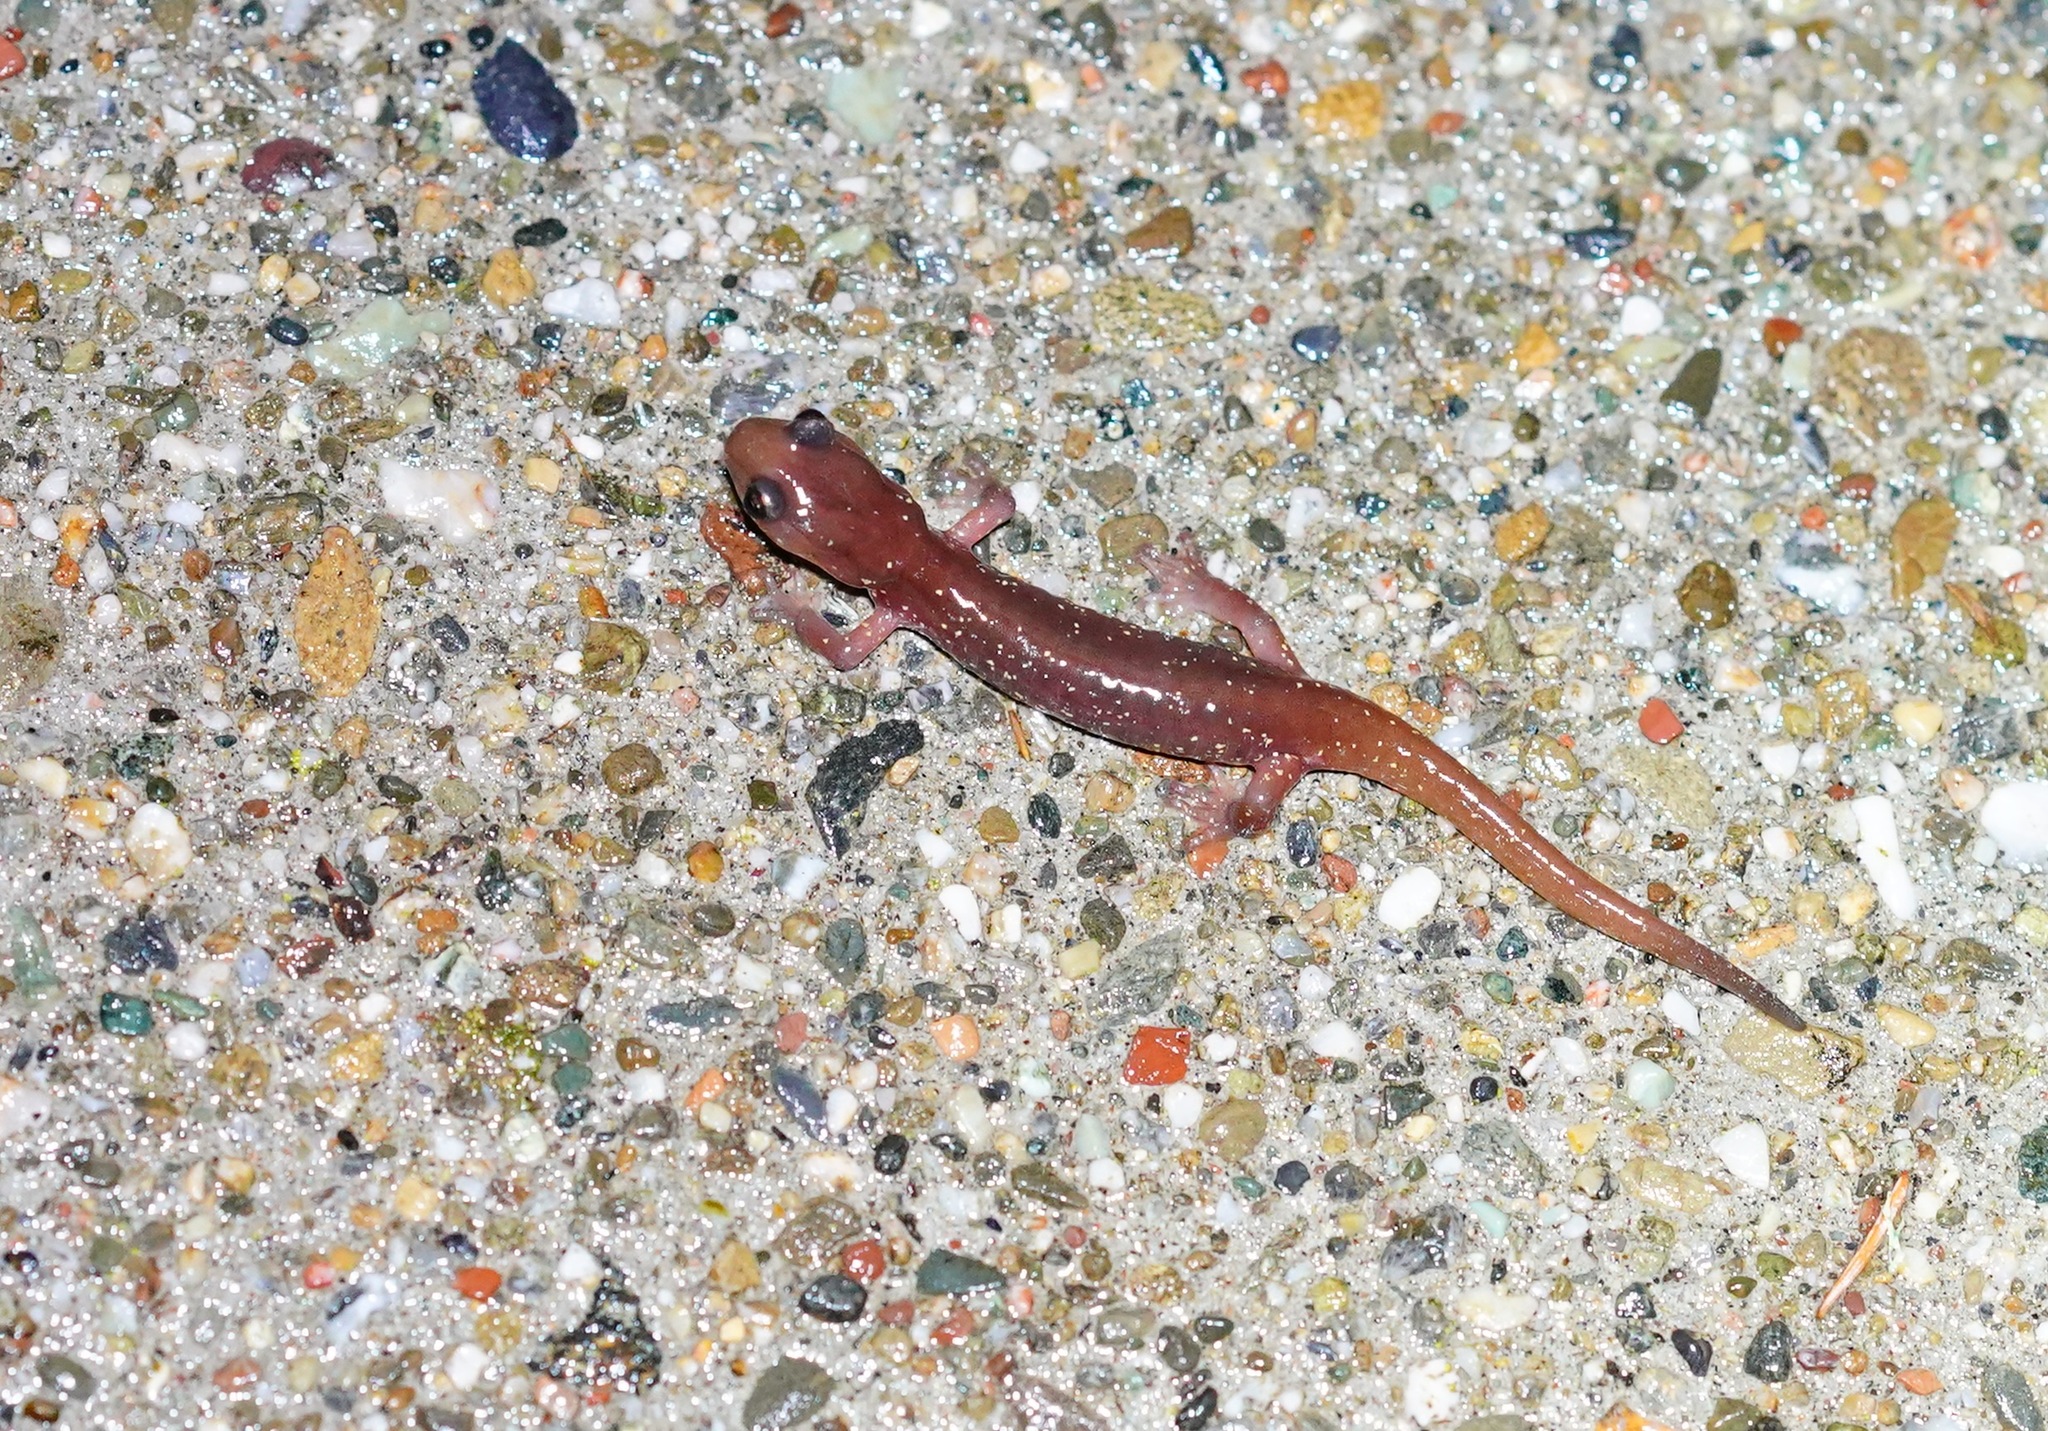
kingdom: Animalia
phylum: Chordata
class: Amphibia
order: Caudata
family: Plethodontidae
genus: Aneides
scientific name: Aneides lugubris
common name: Arboreal salamander
